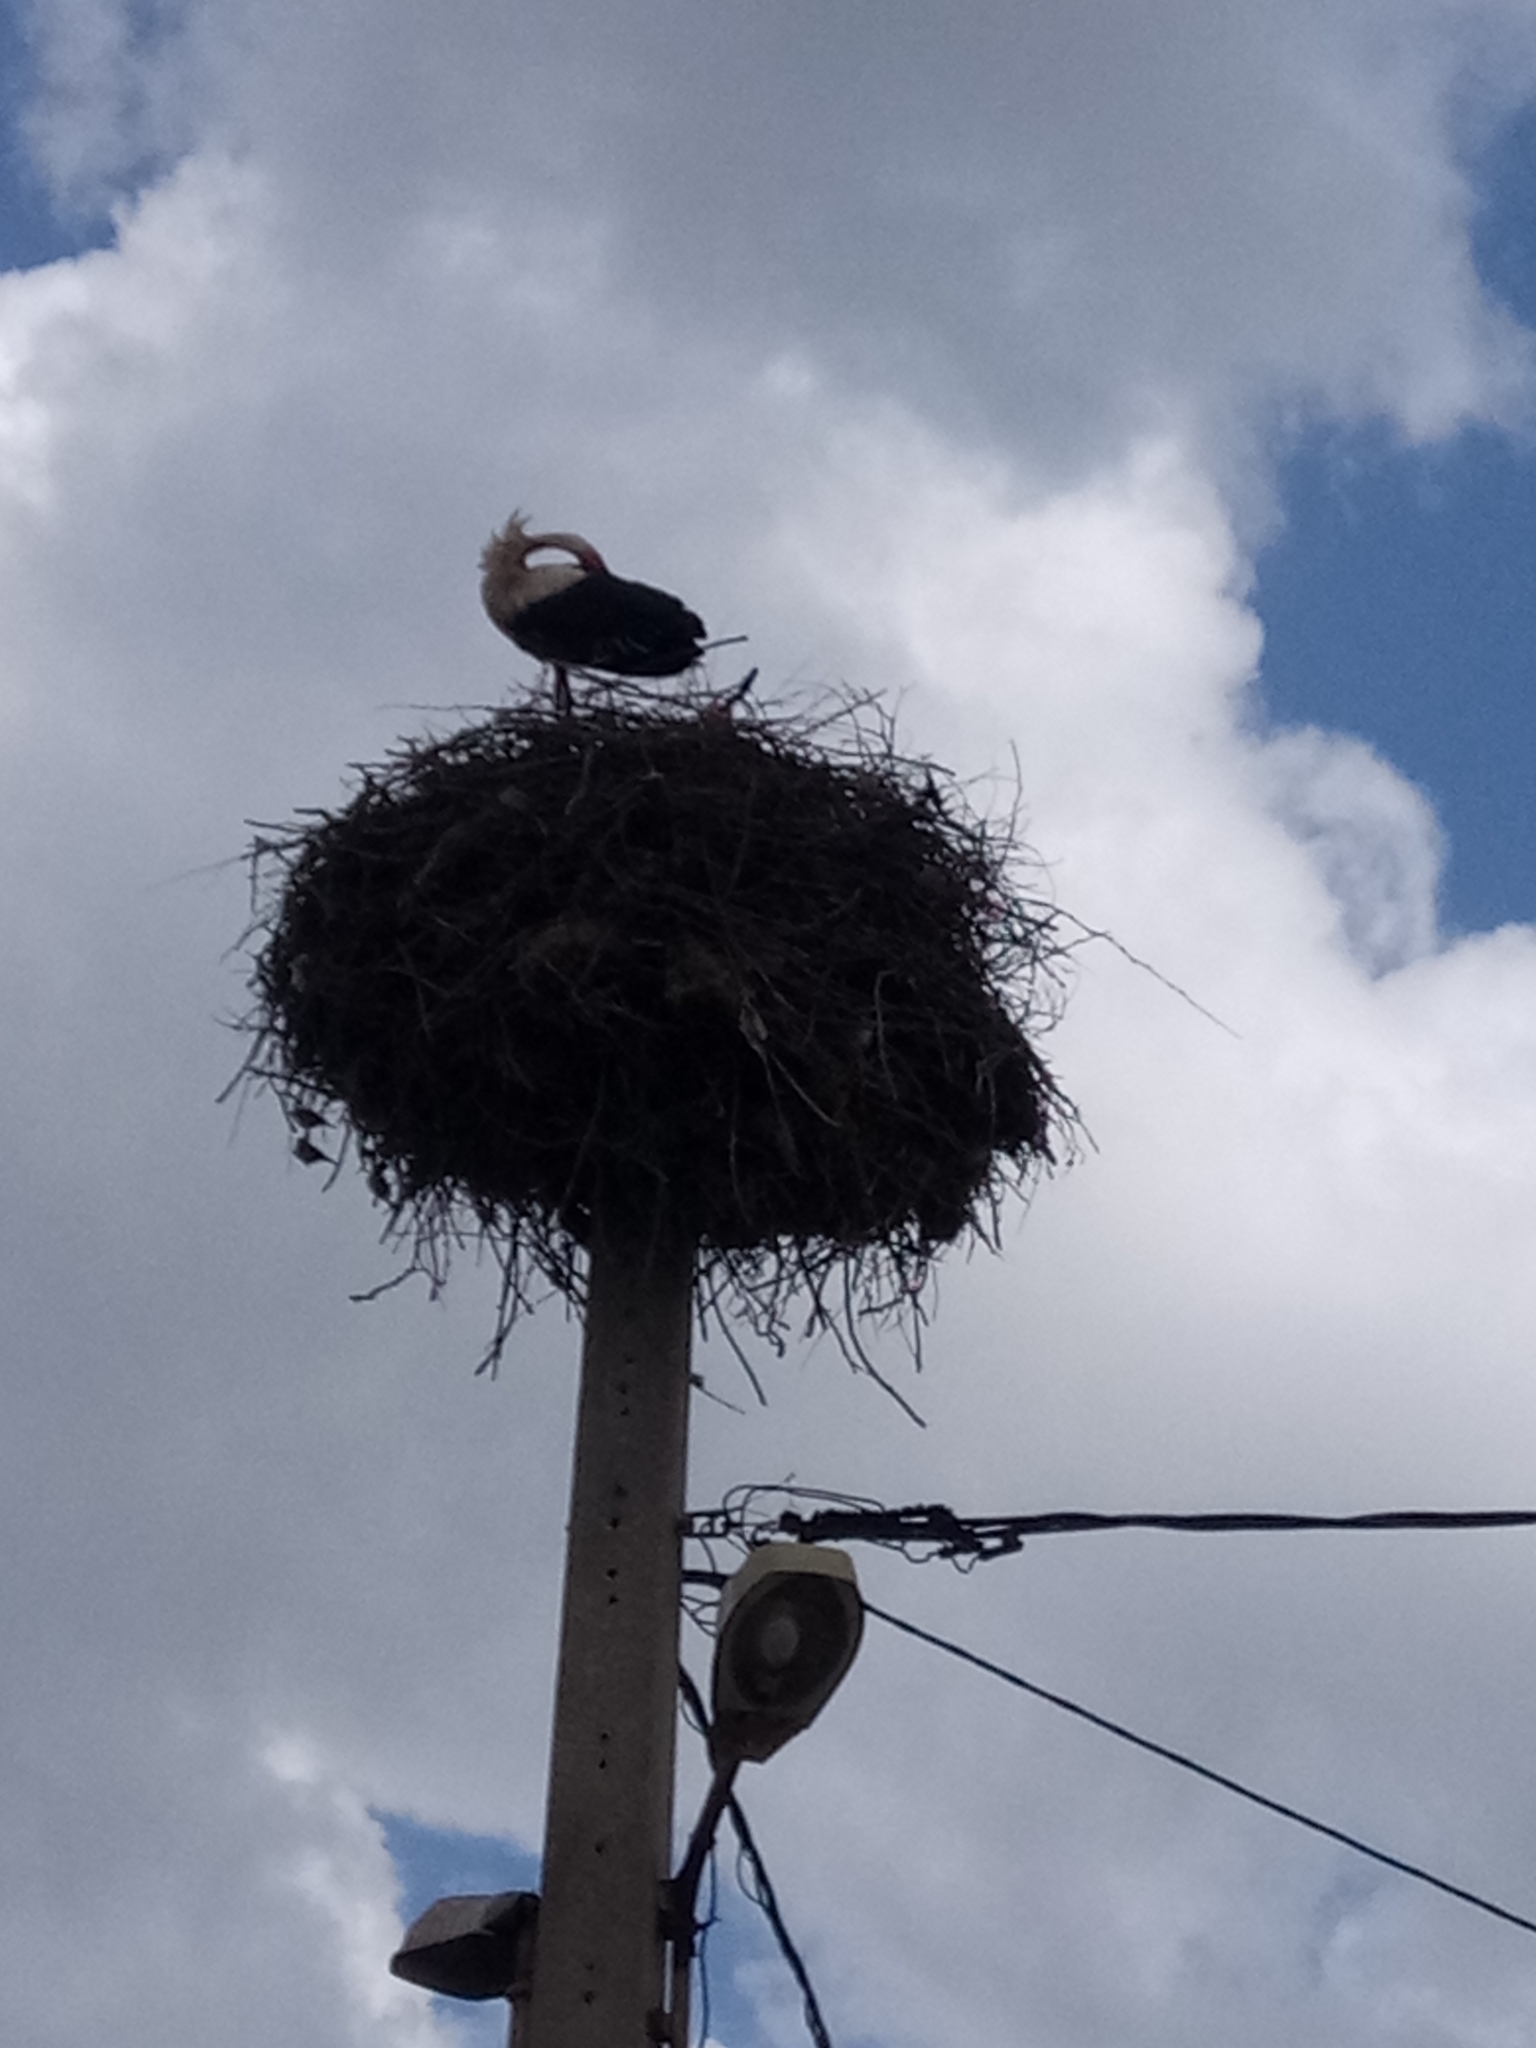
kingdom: Animalia
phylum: Chordata
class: Aves
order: Ciconiiformes
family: Ciconiidae
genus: Ciconia
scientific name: Ciconia ciconia
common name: White stork
